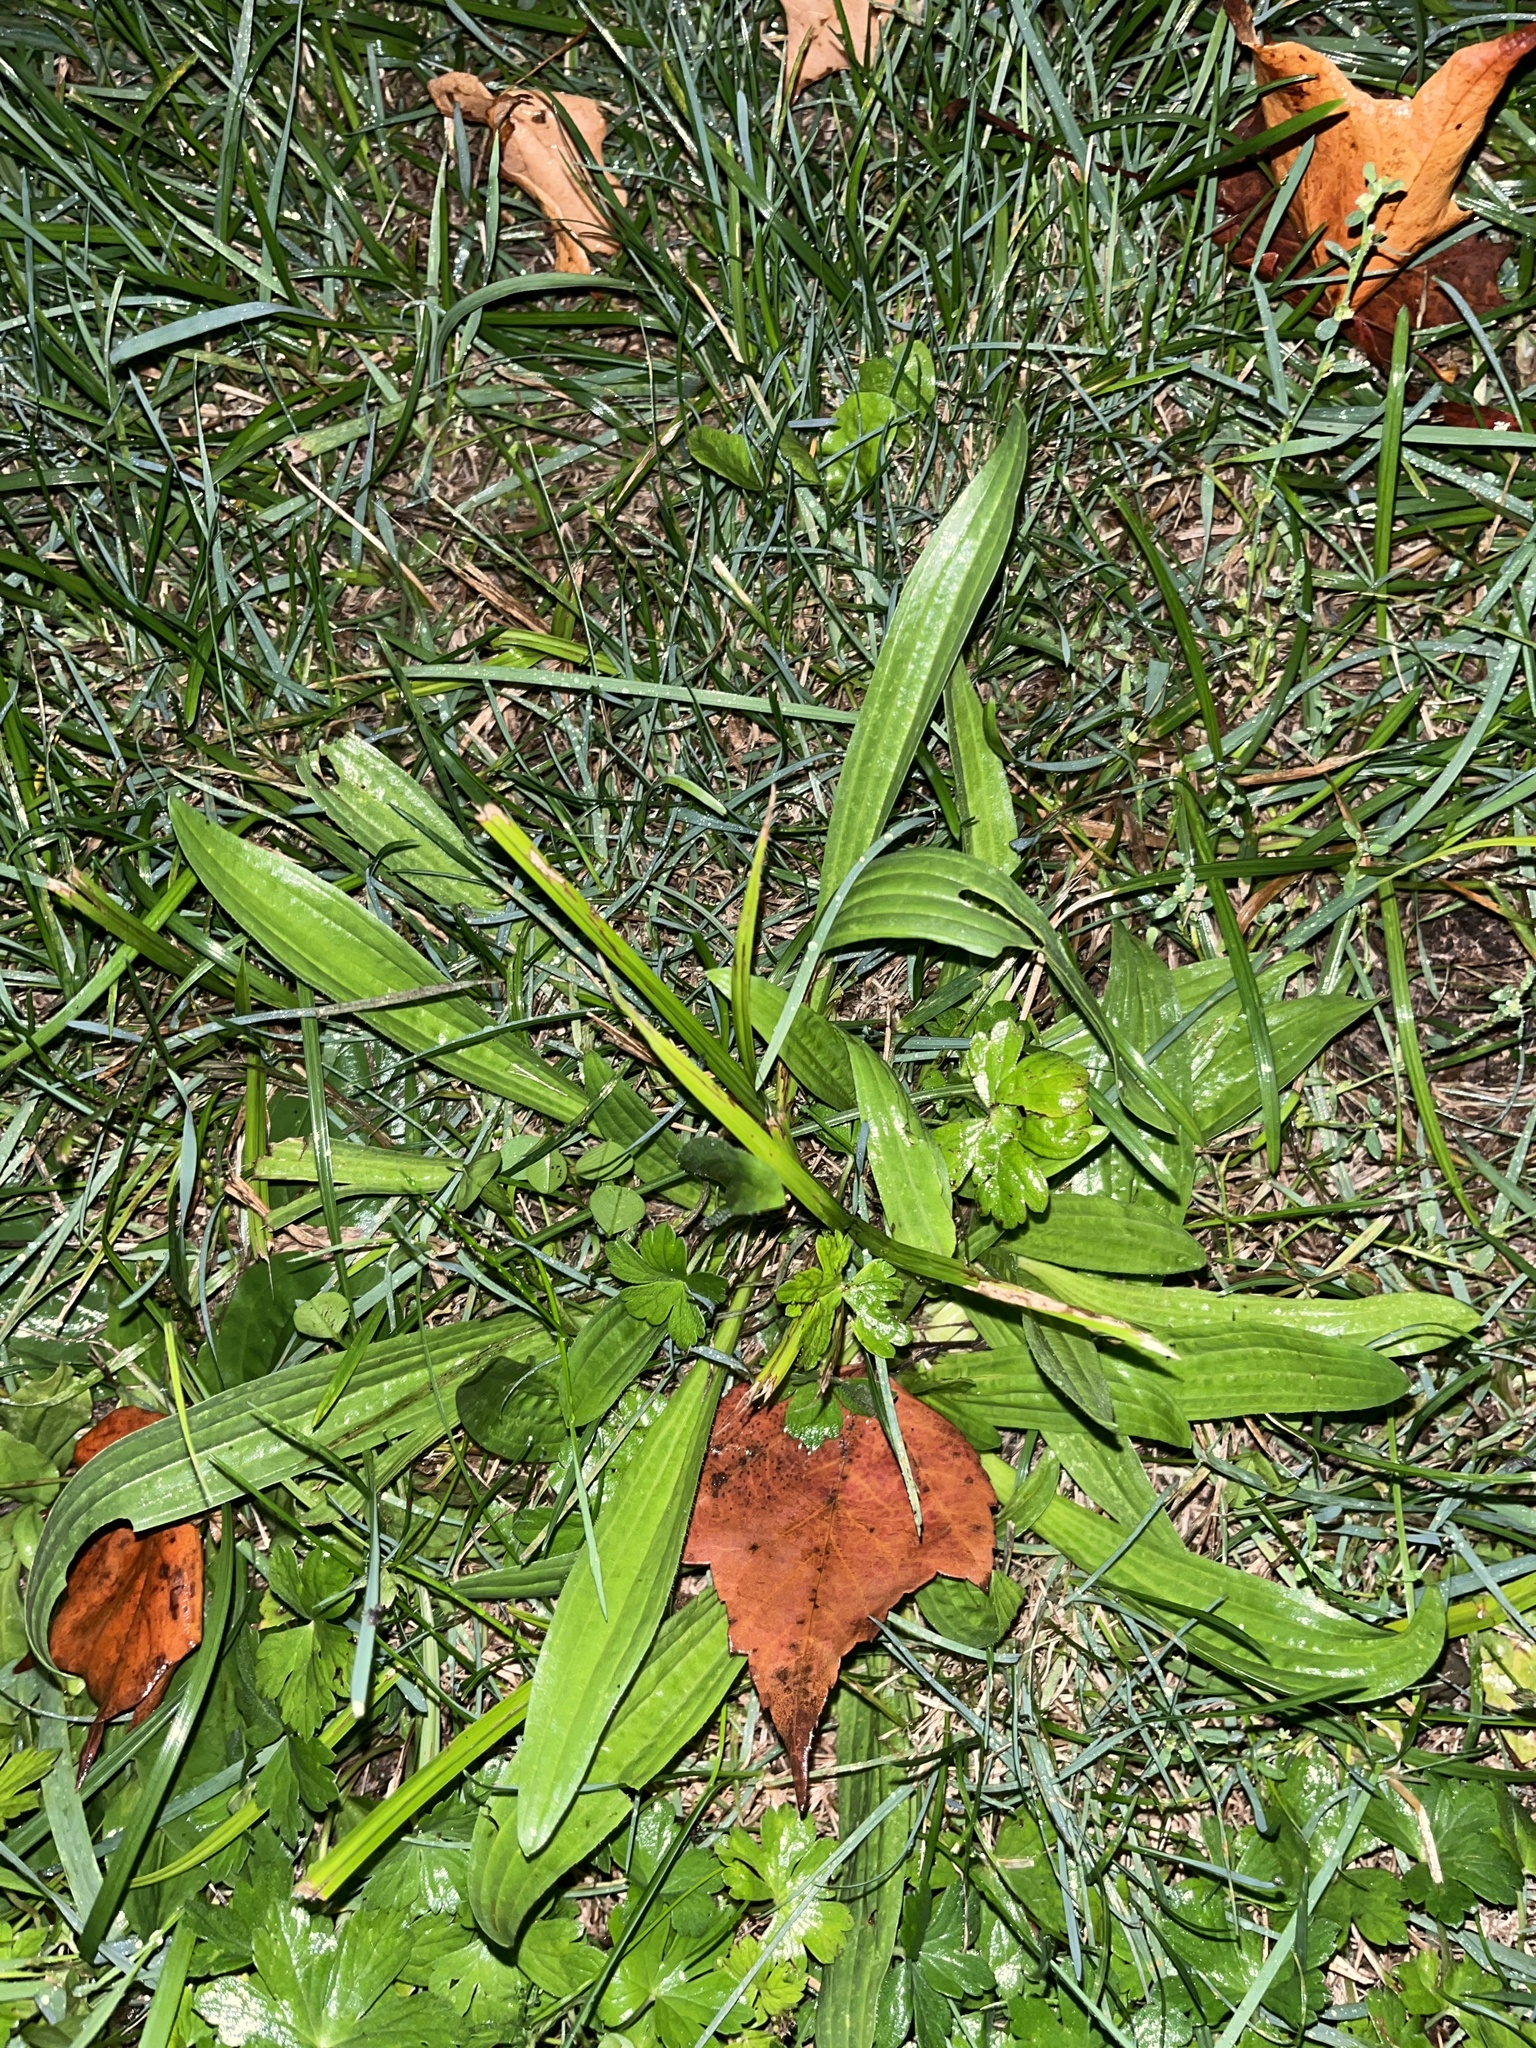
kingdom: Plantae
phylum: Tracheophyta
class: Magnoliopsida
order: Lamiales
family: Plantaginaceae
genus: Plantago
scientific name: Plantago lanceolata
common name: Ribwort plantain
